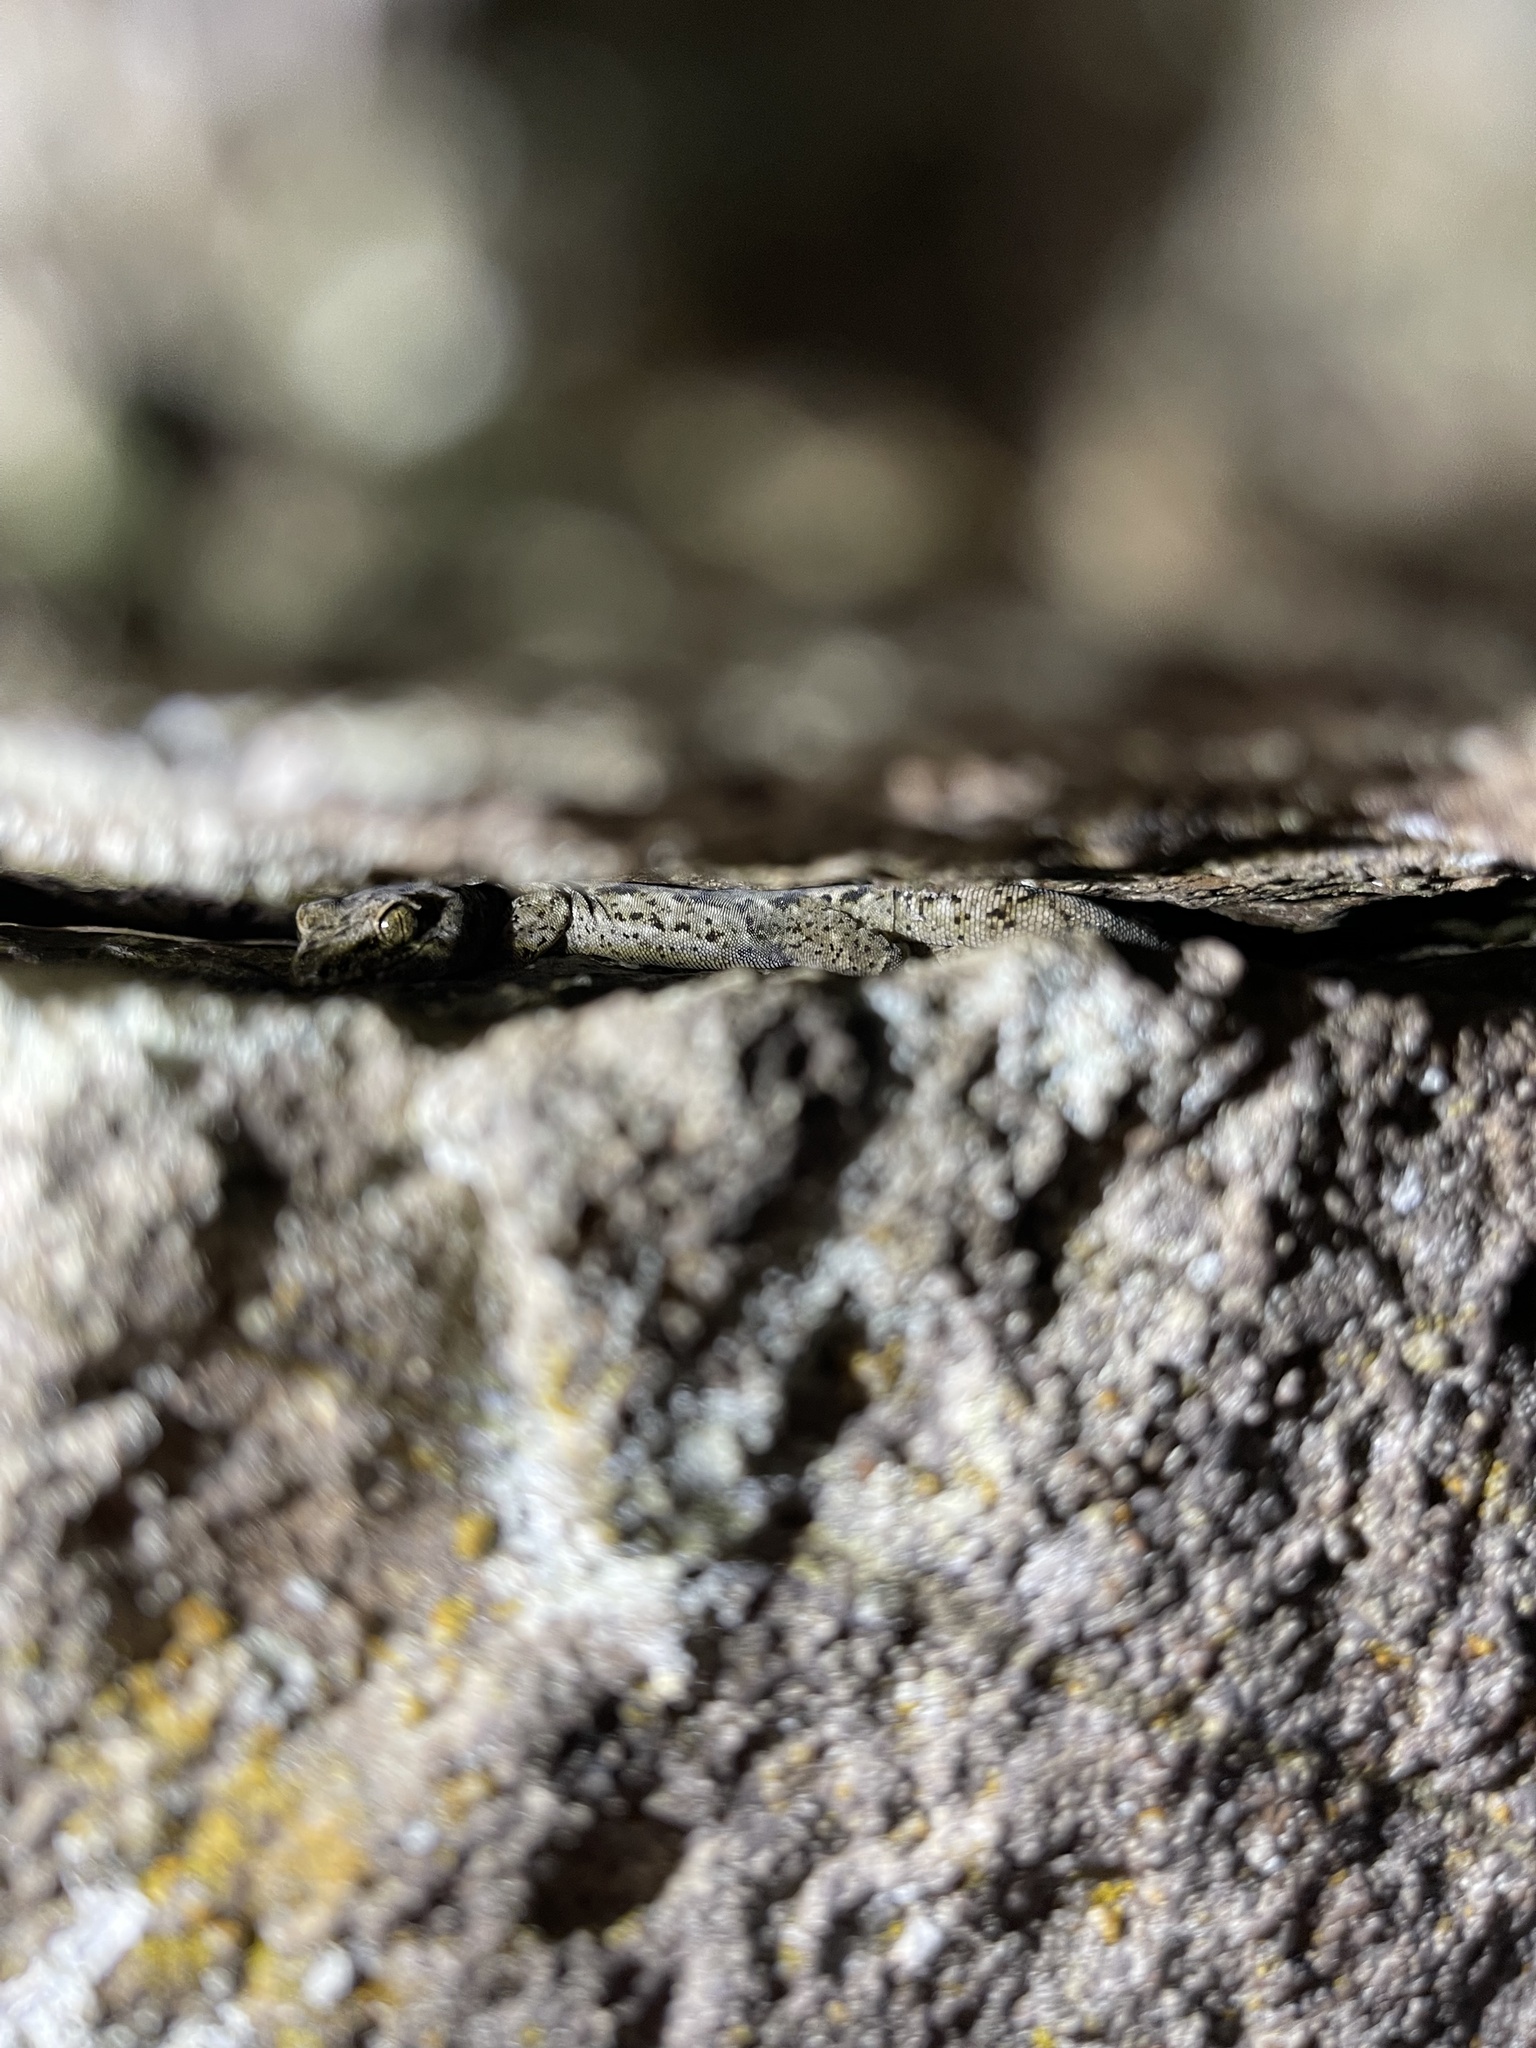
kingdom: Animalia
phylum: Chordata
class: Squamata
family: Diplodactylidae
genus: Woodworthia
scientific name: Woodworthia brunnea
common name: Canterbury gecko
